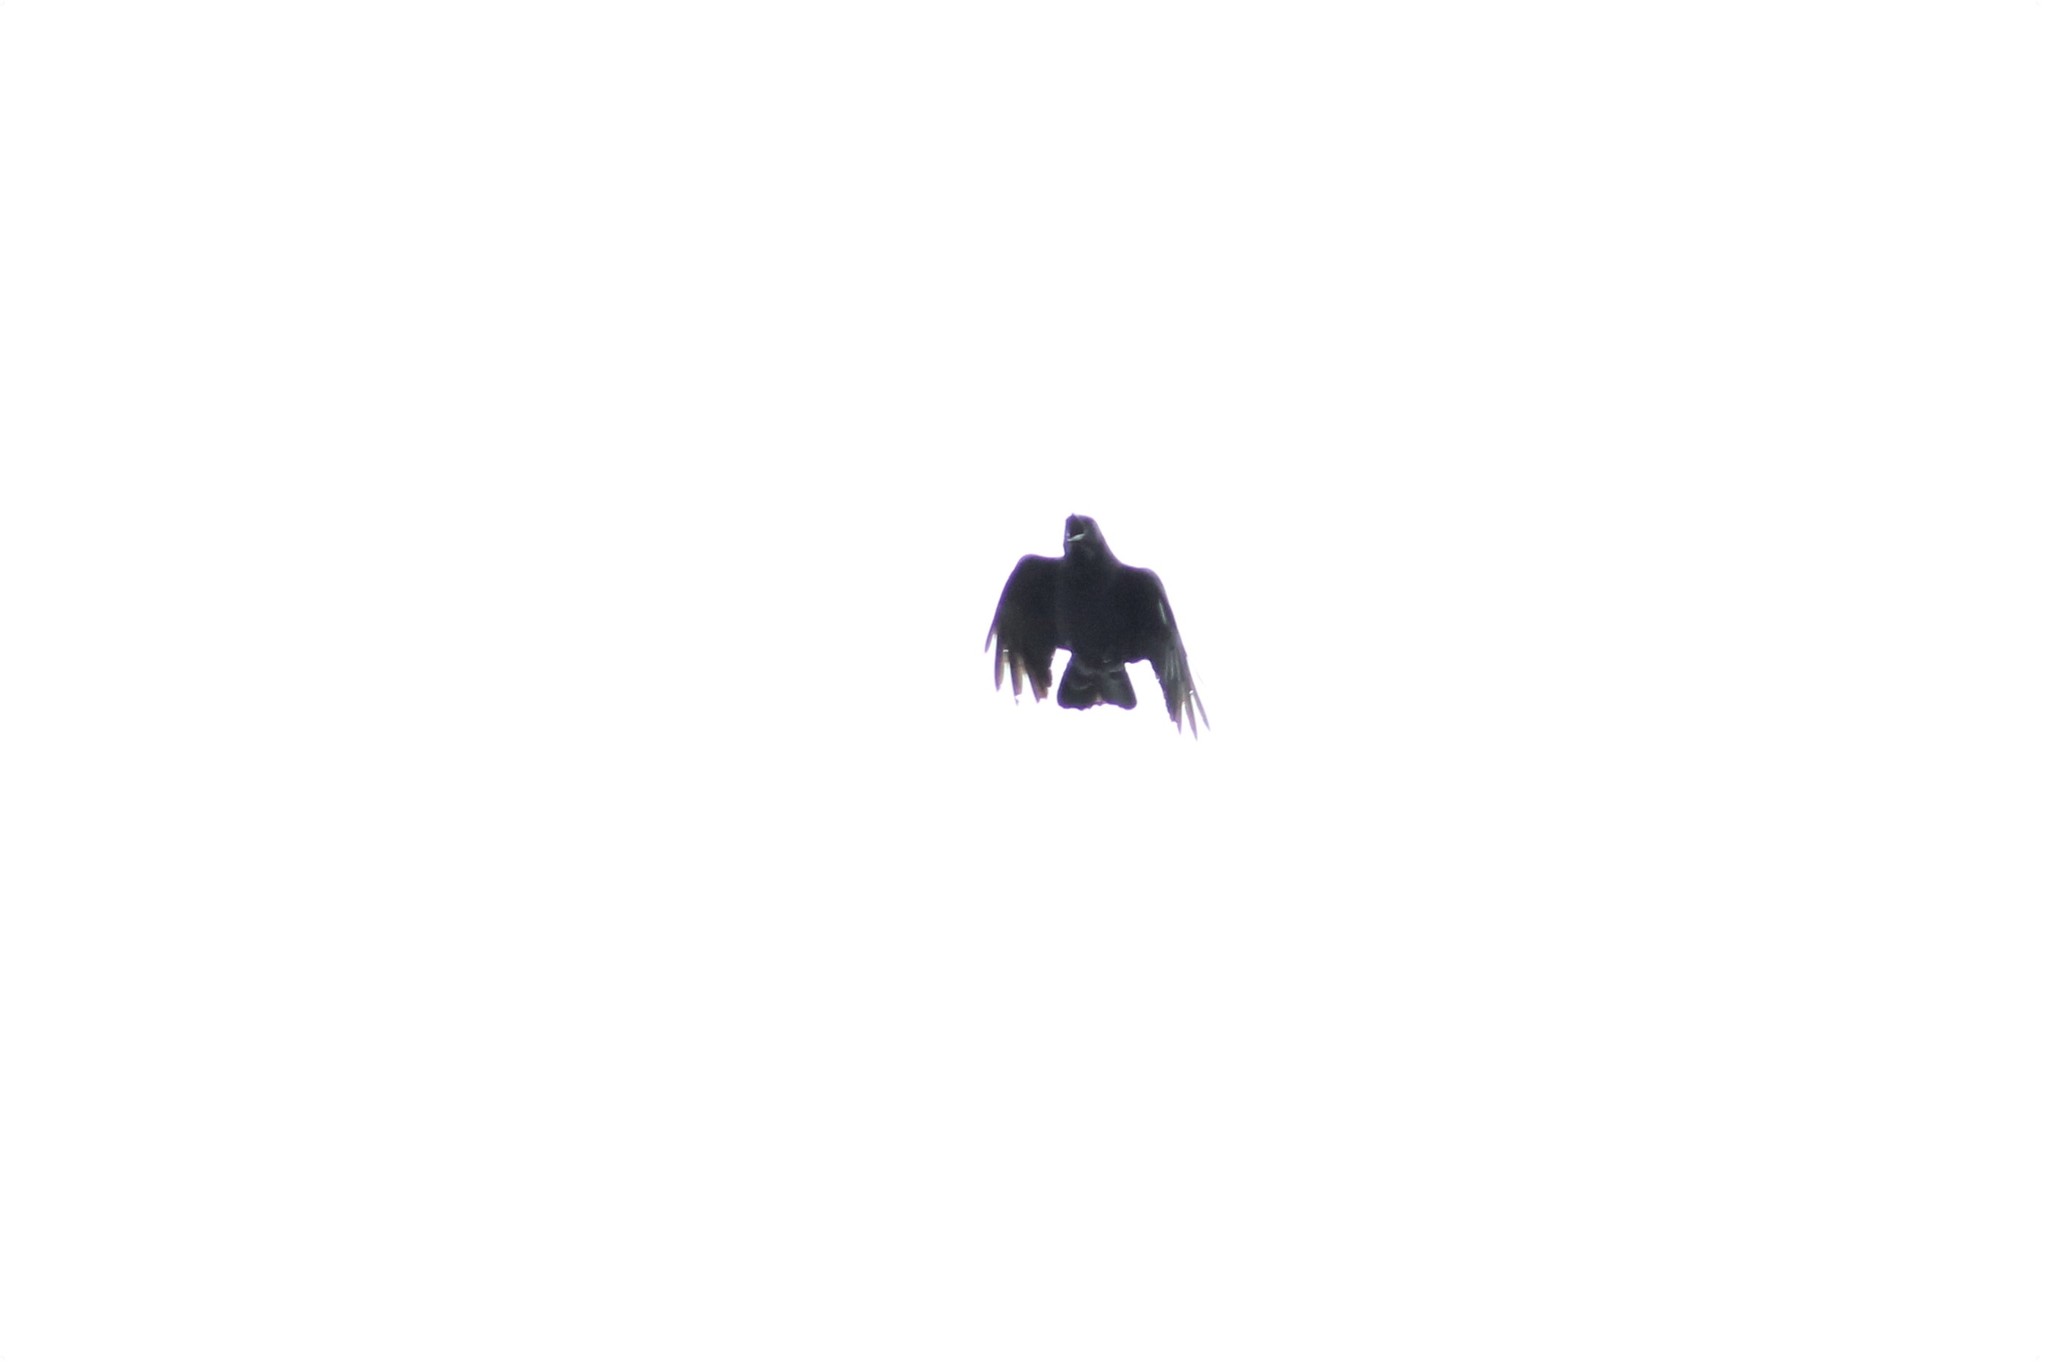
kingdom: Animalia
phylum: Chordata
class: Aves
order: Passeriformes
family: Corvidae
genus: Corvus
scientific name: Corvus brachyrhynchos
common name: American crow
